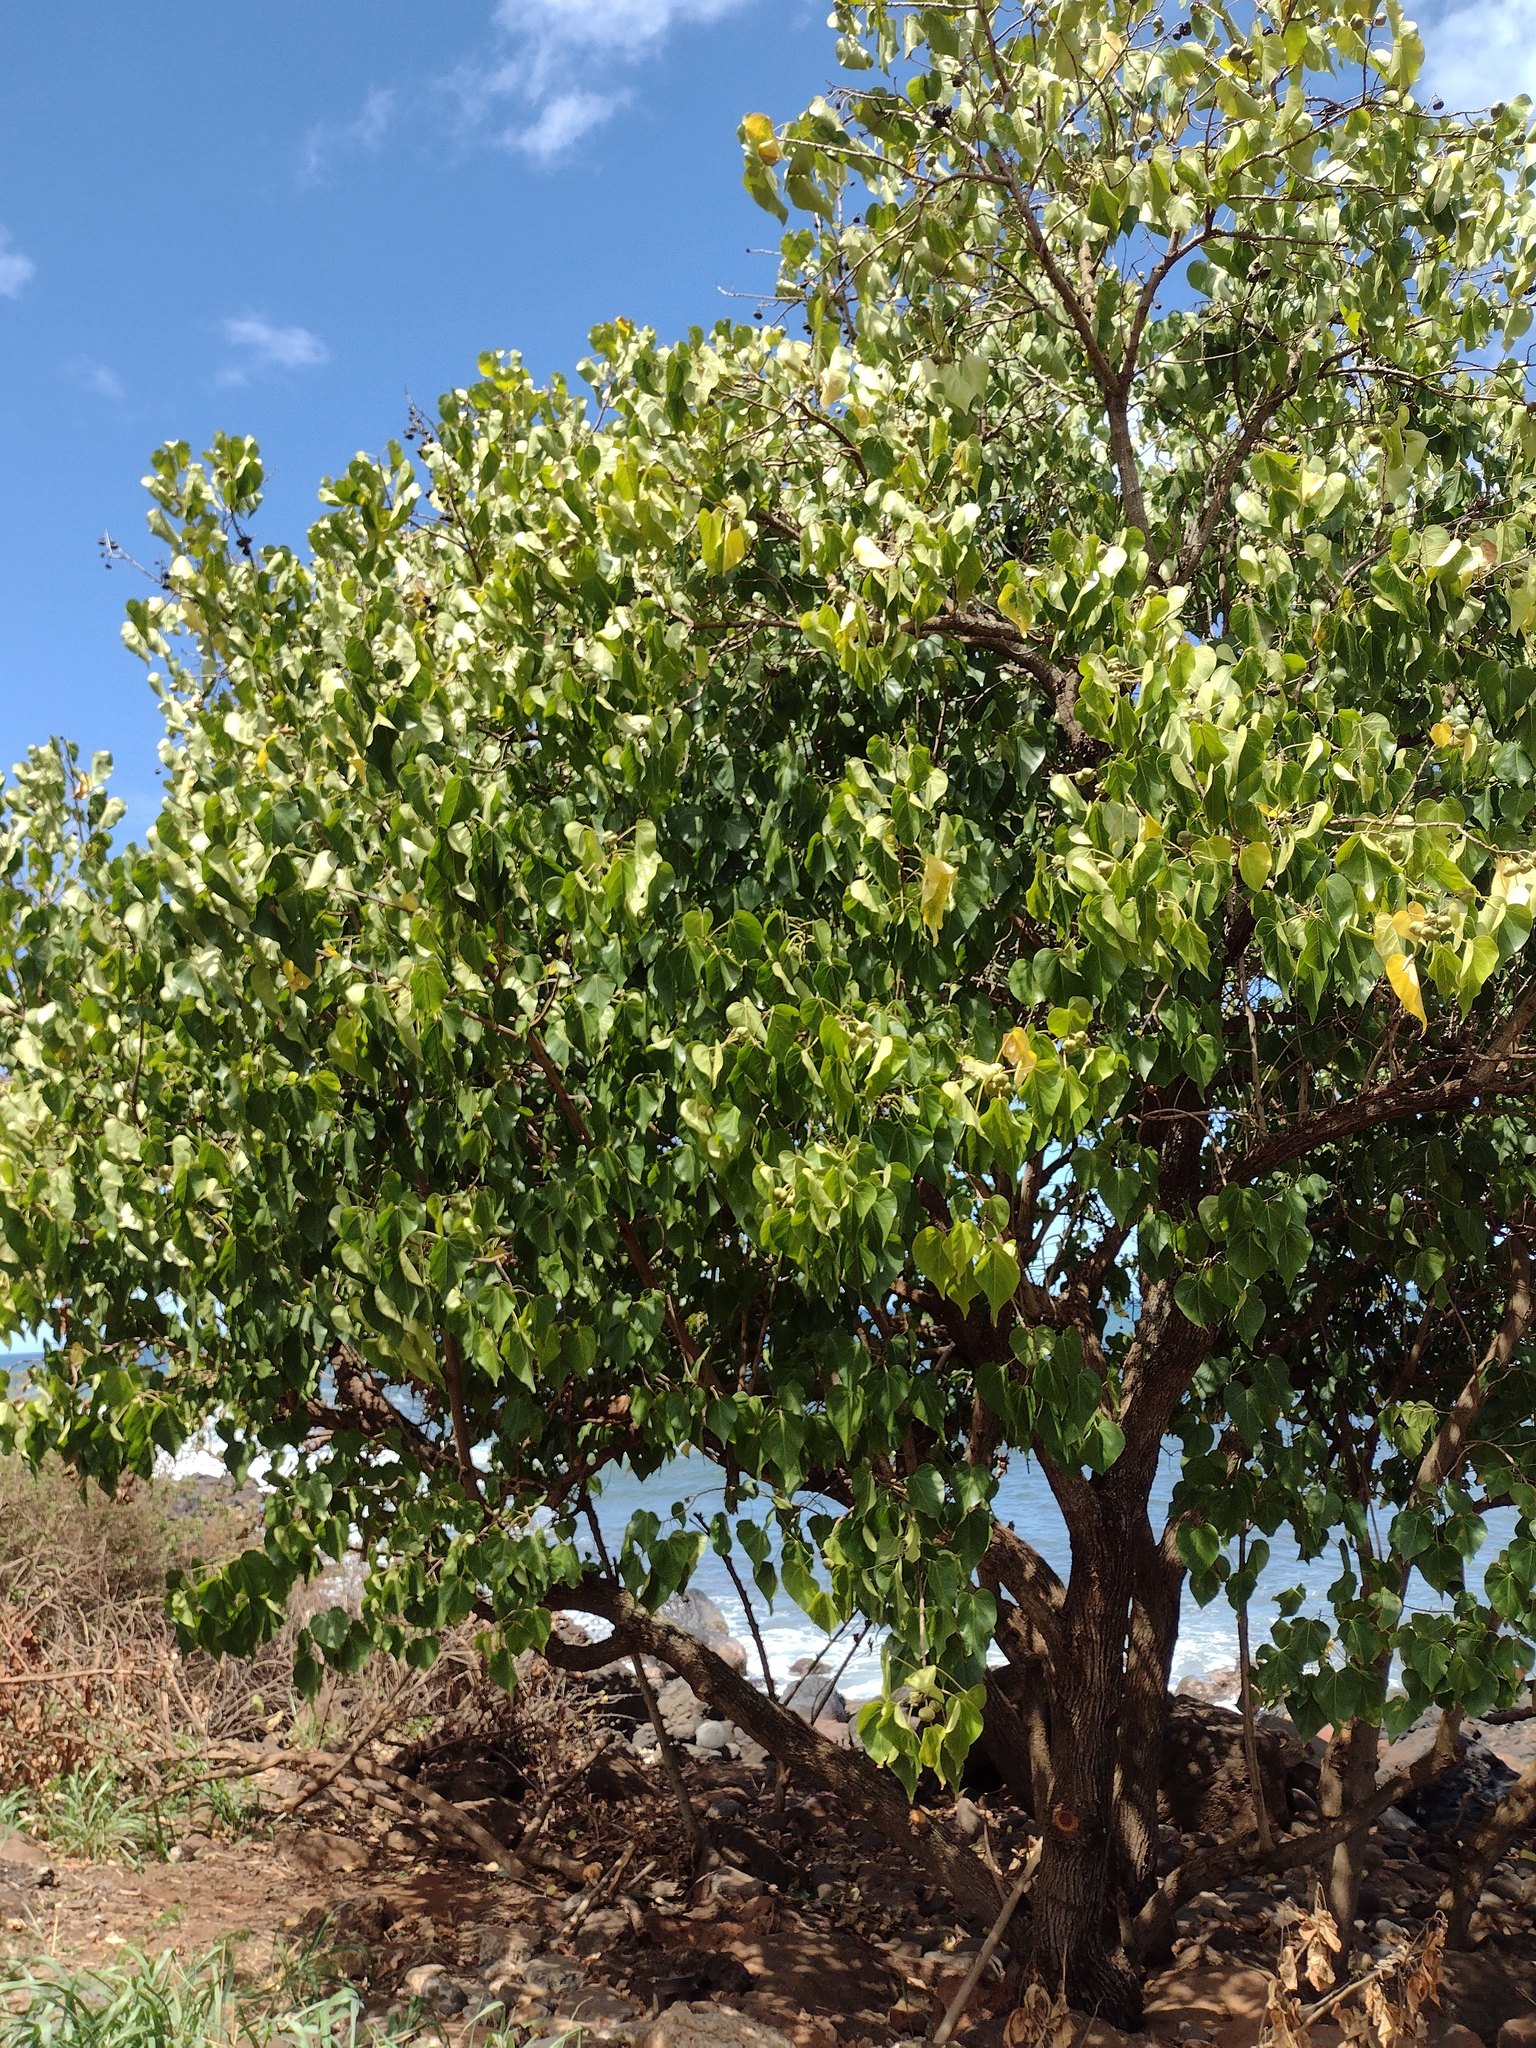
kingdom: Plantae
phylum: Tracheophyta
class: Magnoliopsida
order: Malvales
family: Malvaceae
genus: Thespesia
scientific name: Thespesia populnea
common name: Seaside mahoe
